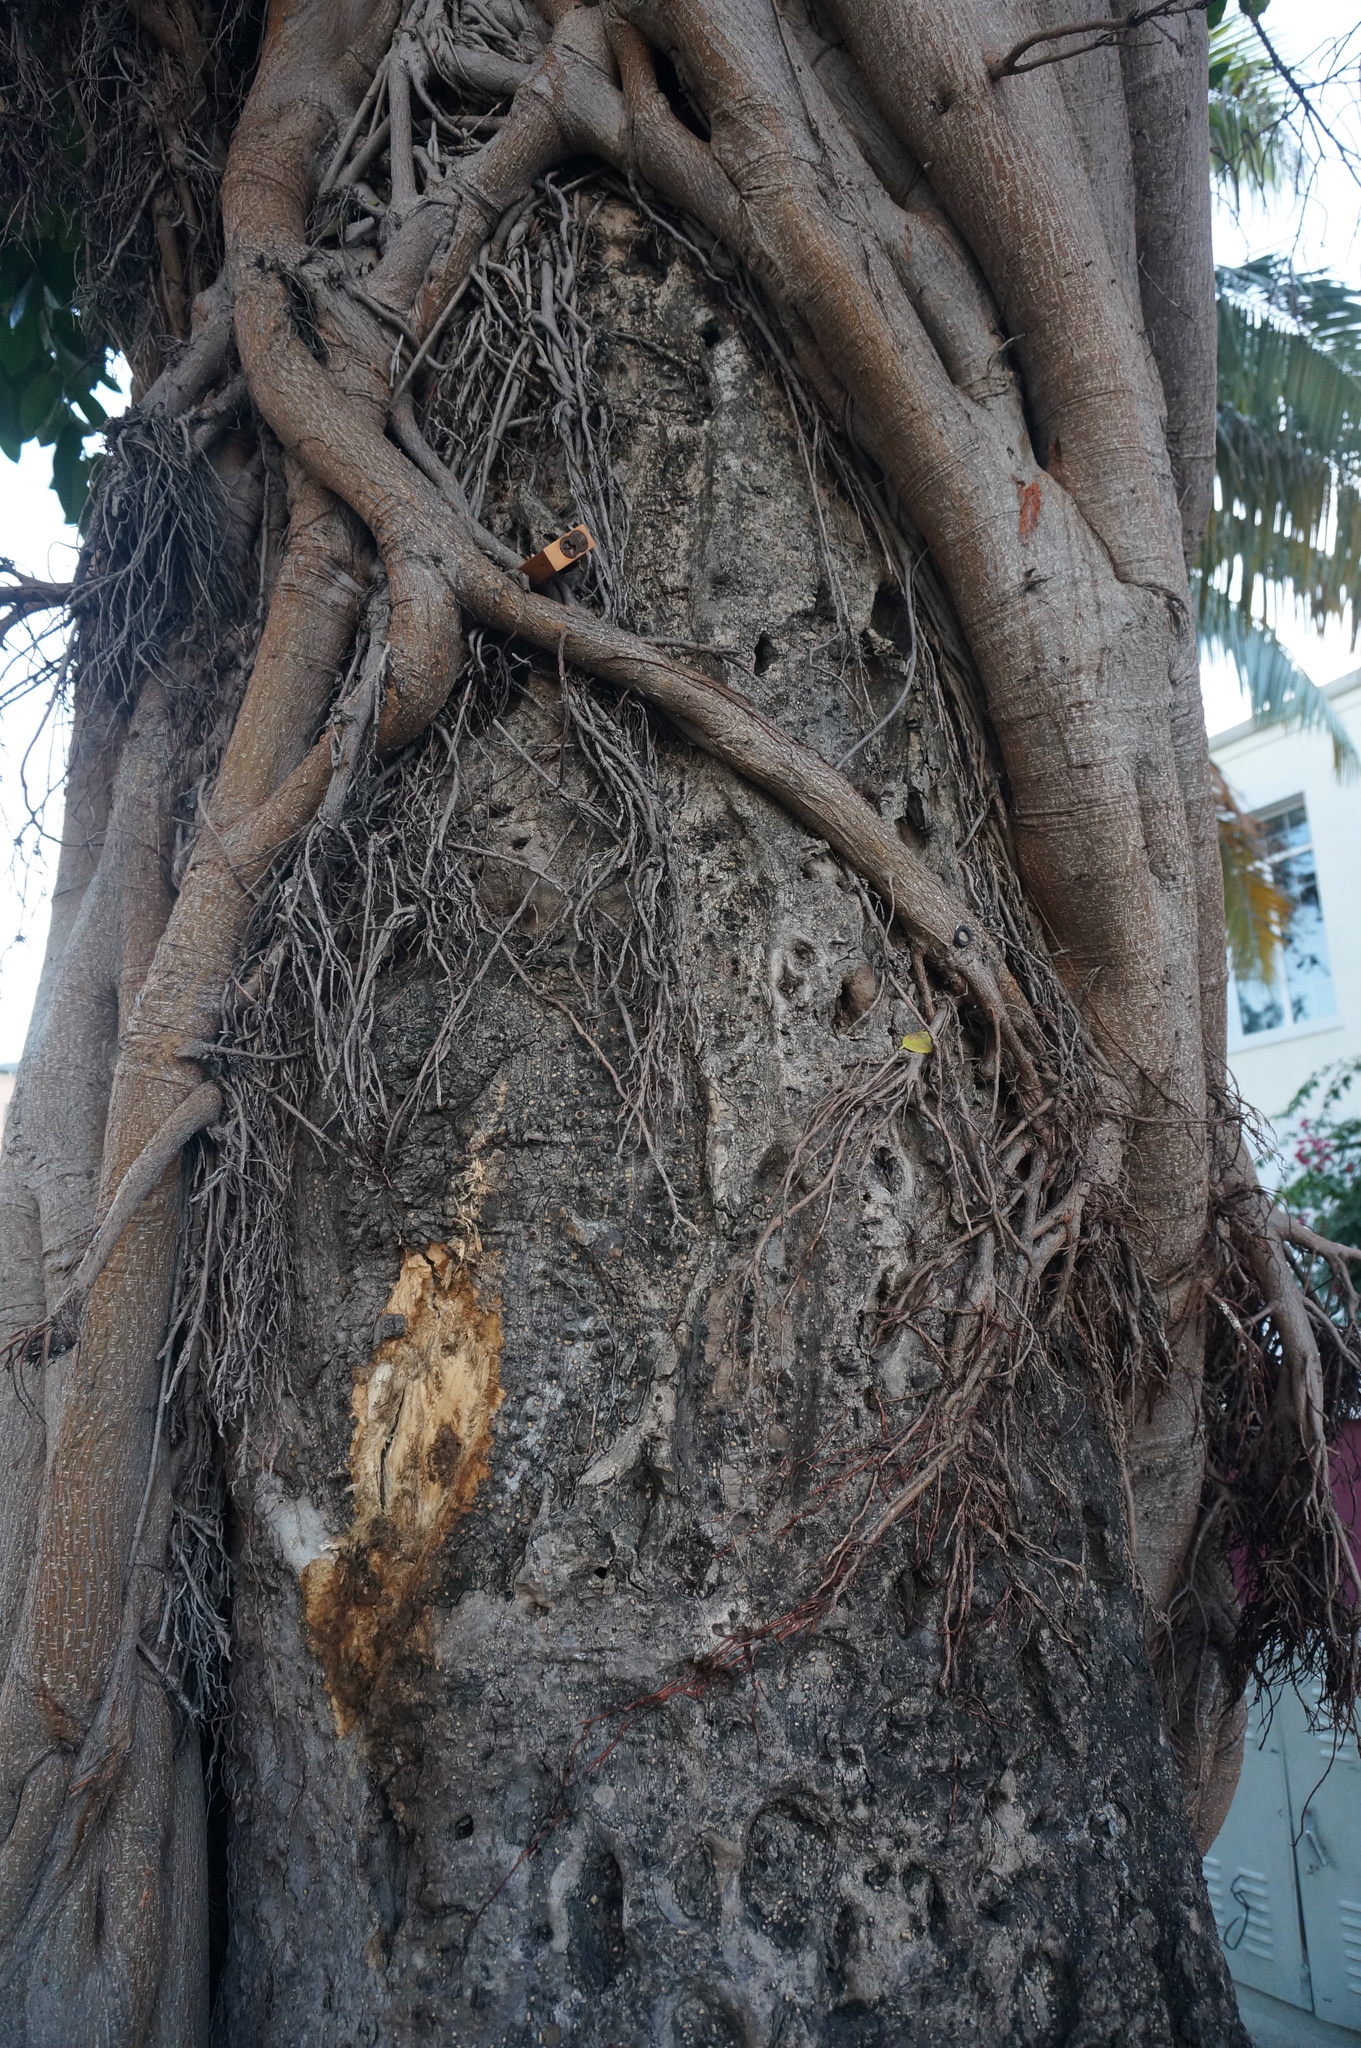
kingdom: Plantae
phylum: Tracheophyta
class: Magnoliopsida
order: Rosales
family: Moraceae
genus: Ficus
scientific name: Ficus aurea
